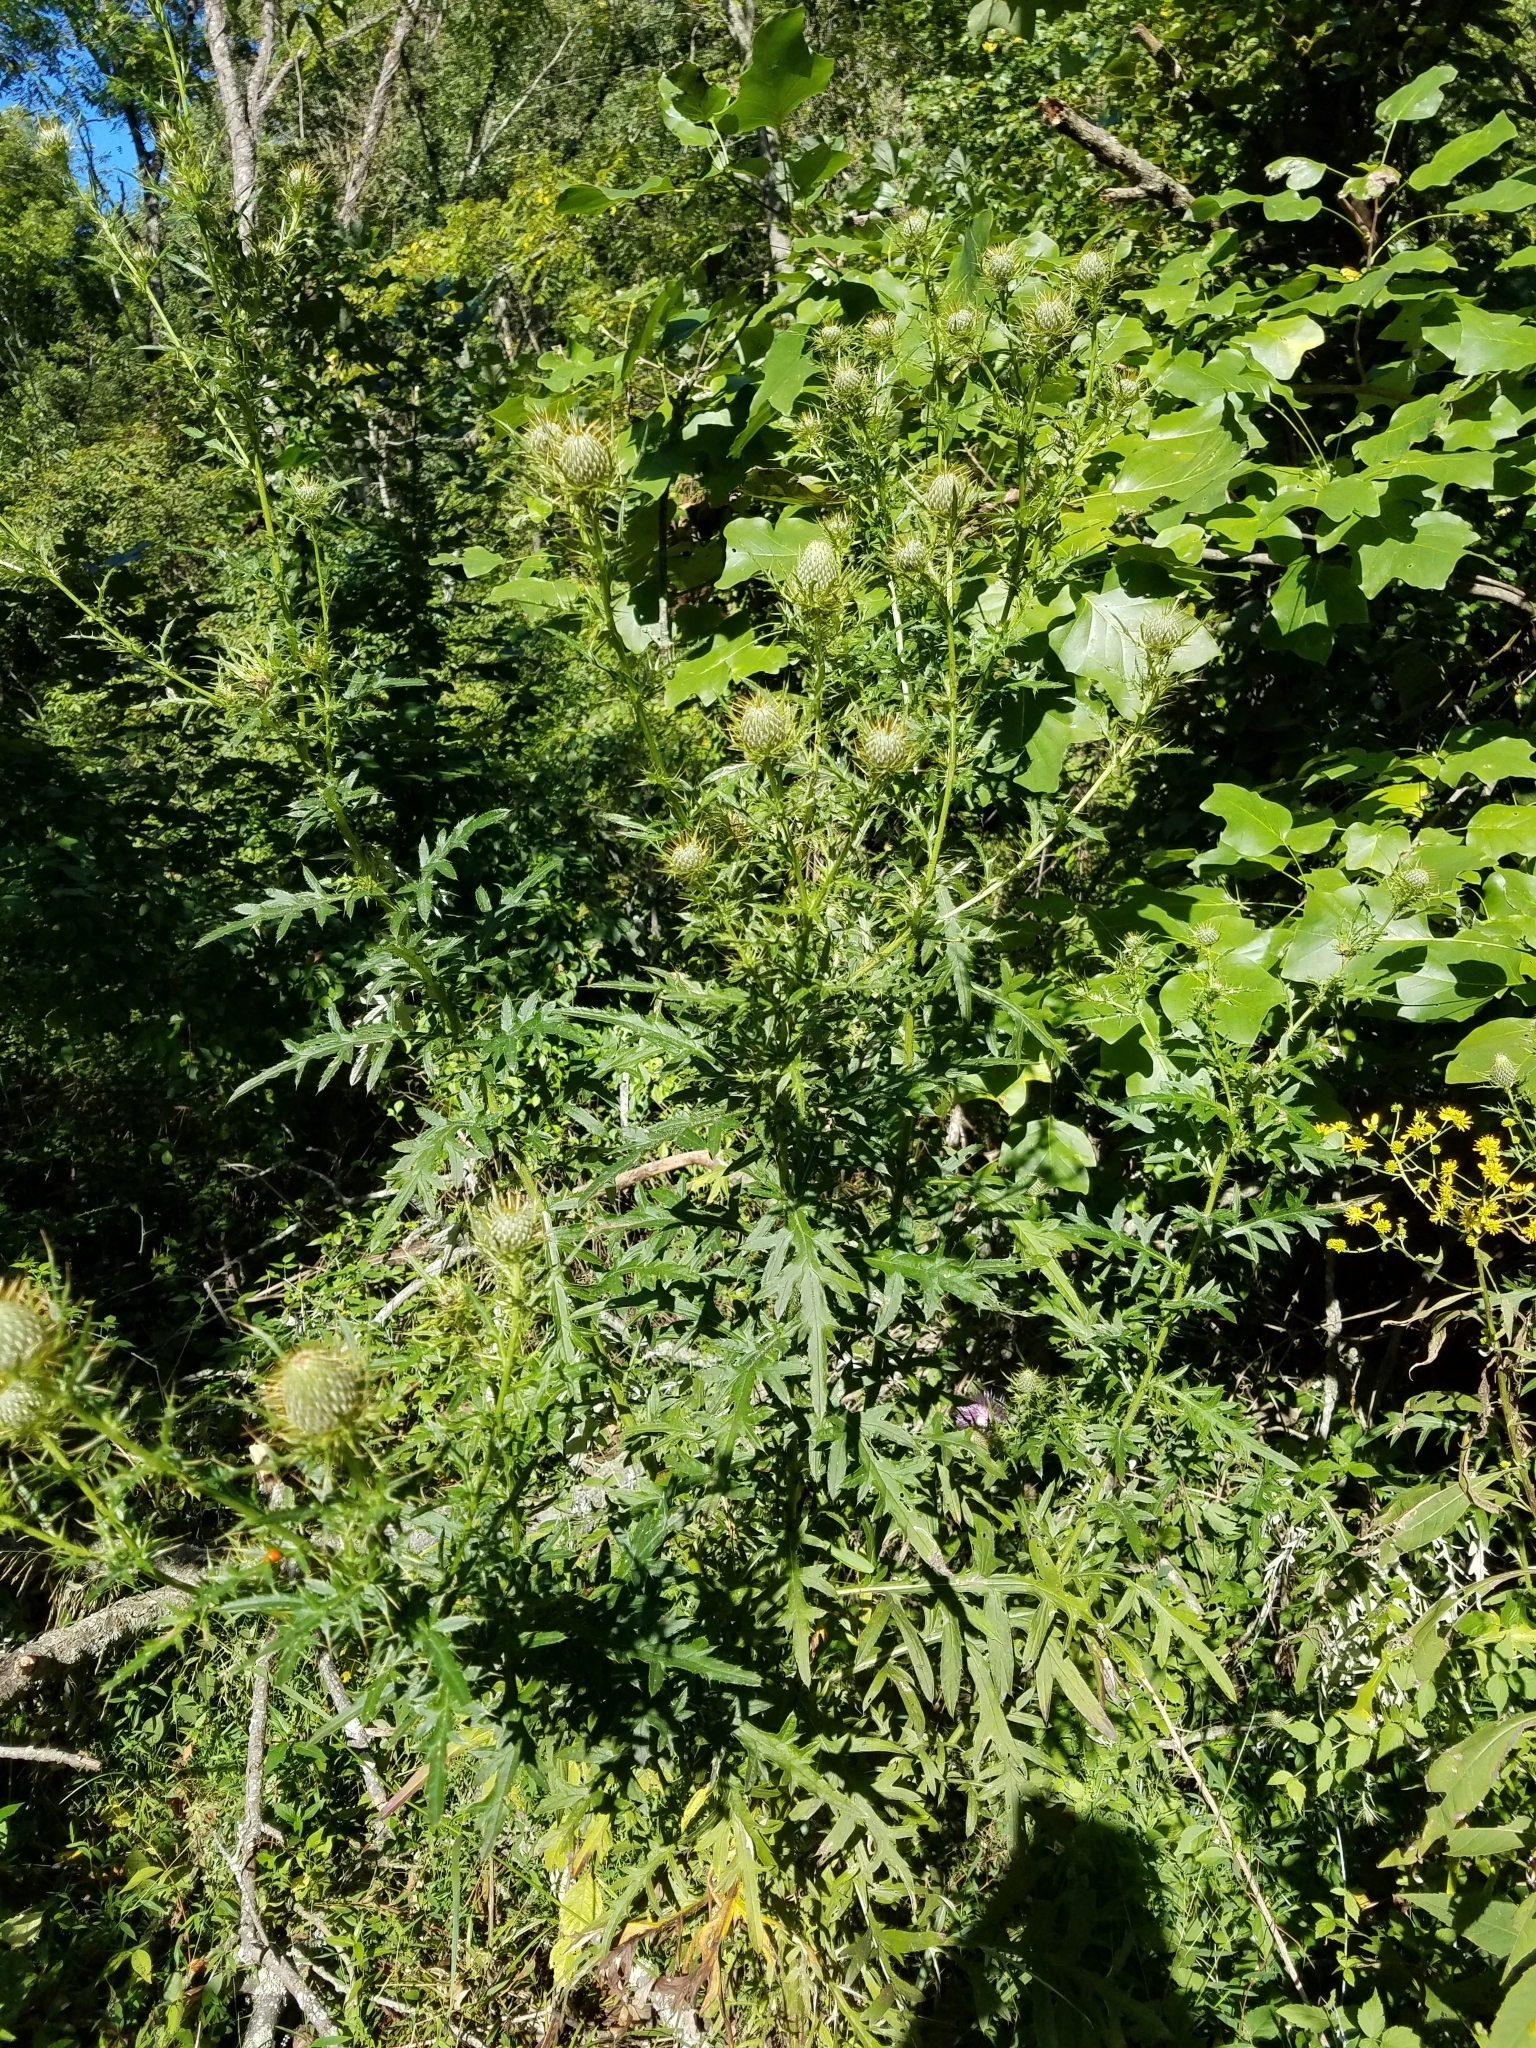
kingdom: Plantae
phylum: Tracheophyta
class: Magnoliopsida
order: Asterales
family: Asteraceae
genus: Cirsium
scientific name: Cirsium discolor
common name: Field thistle
